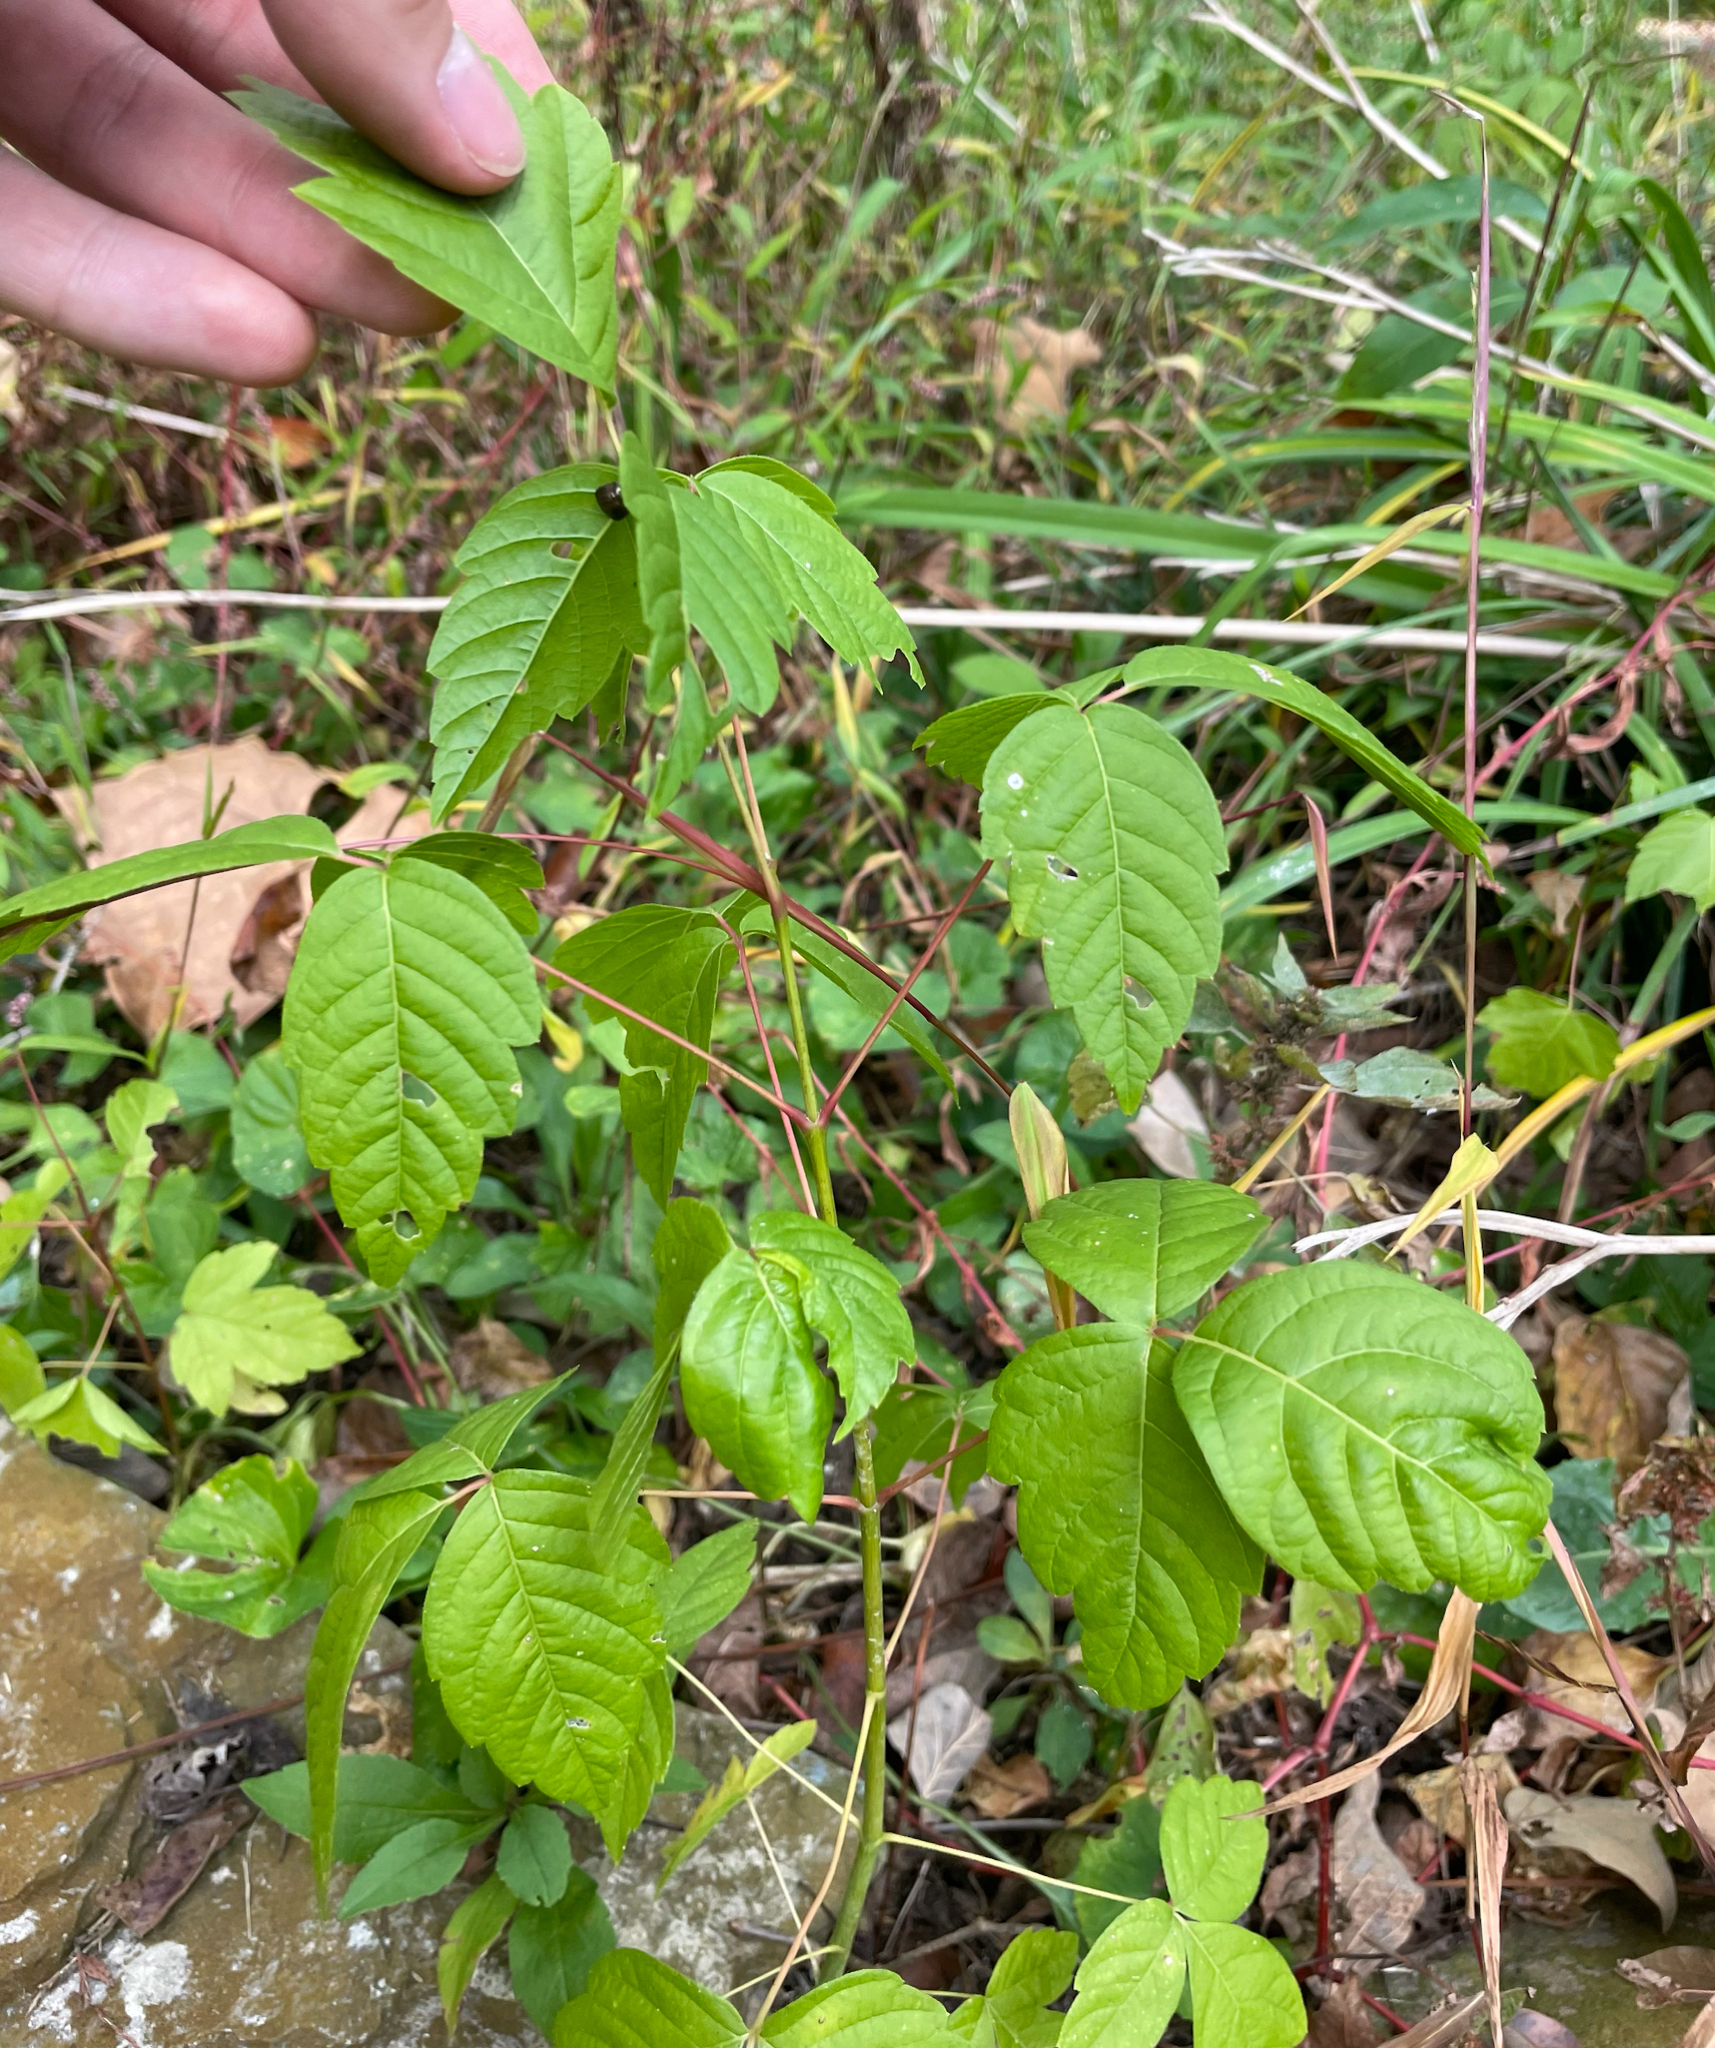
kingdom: Plantae
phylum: Tracheophyta
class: Magnoliopsida
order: Sapindales
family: Sapindaceae
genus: Acer
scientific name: Acer negundo
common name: Ashleaf maple
